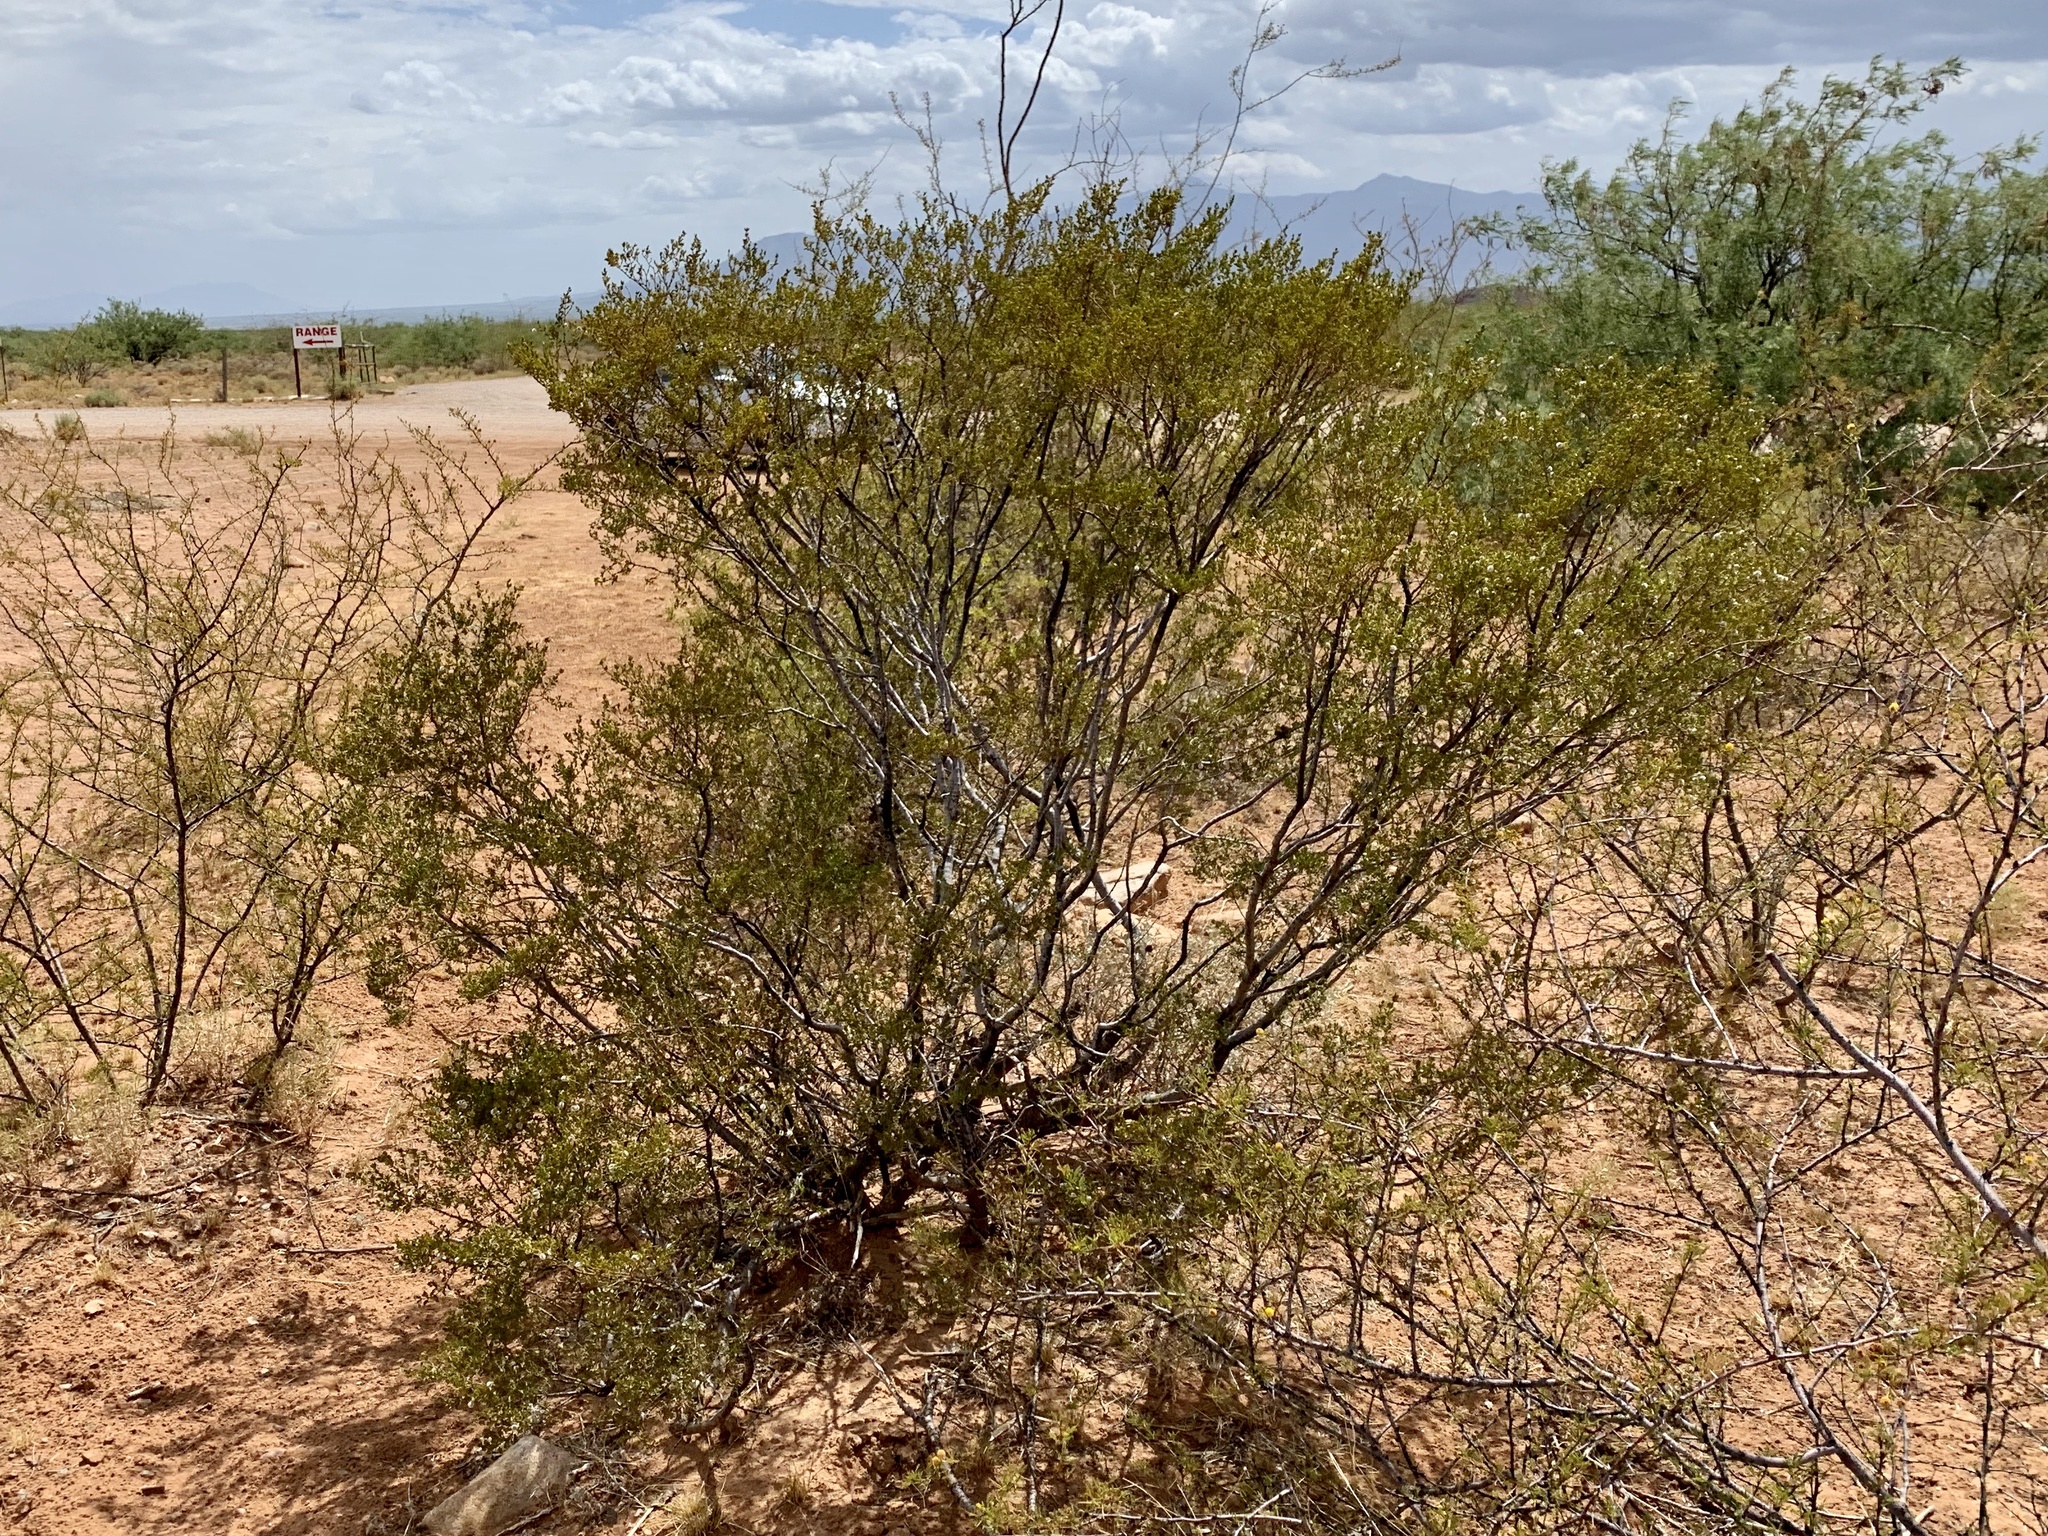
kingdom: Plantae
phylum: Tracheophyta
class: Magnoliopsida
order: Zygophyllales
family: Zygophyllaceae
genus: Larrea
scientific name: Larrea tridentata
